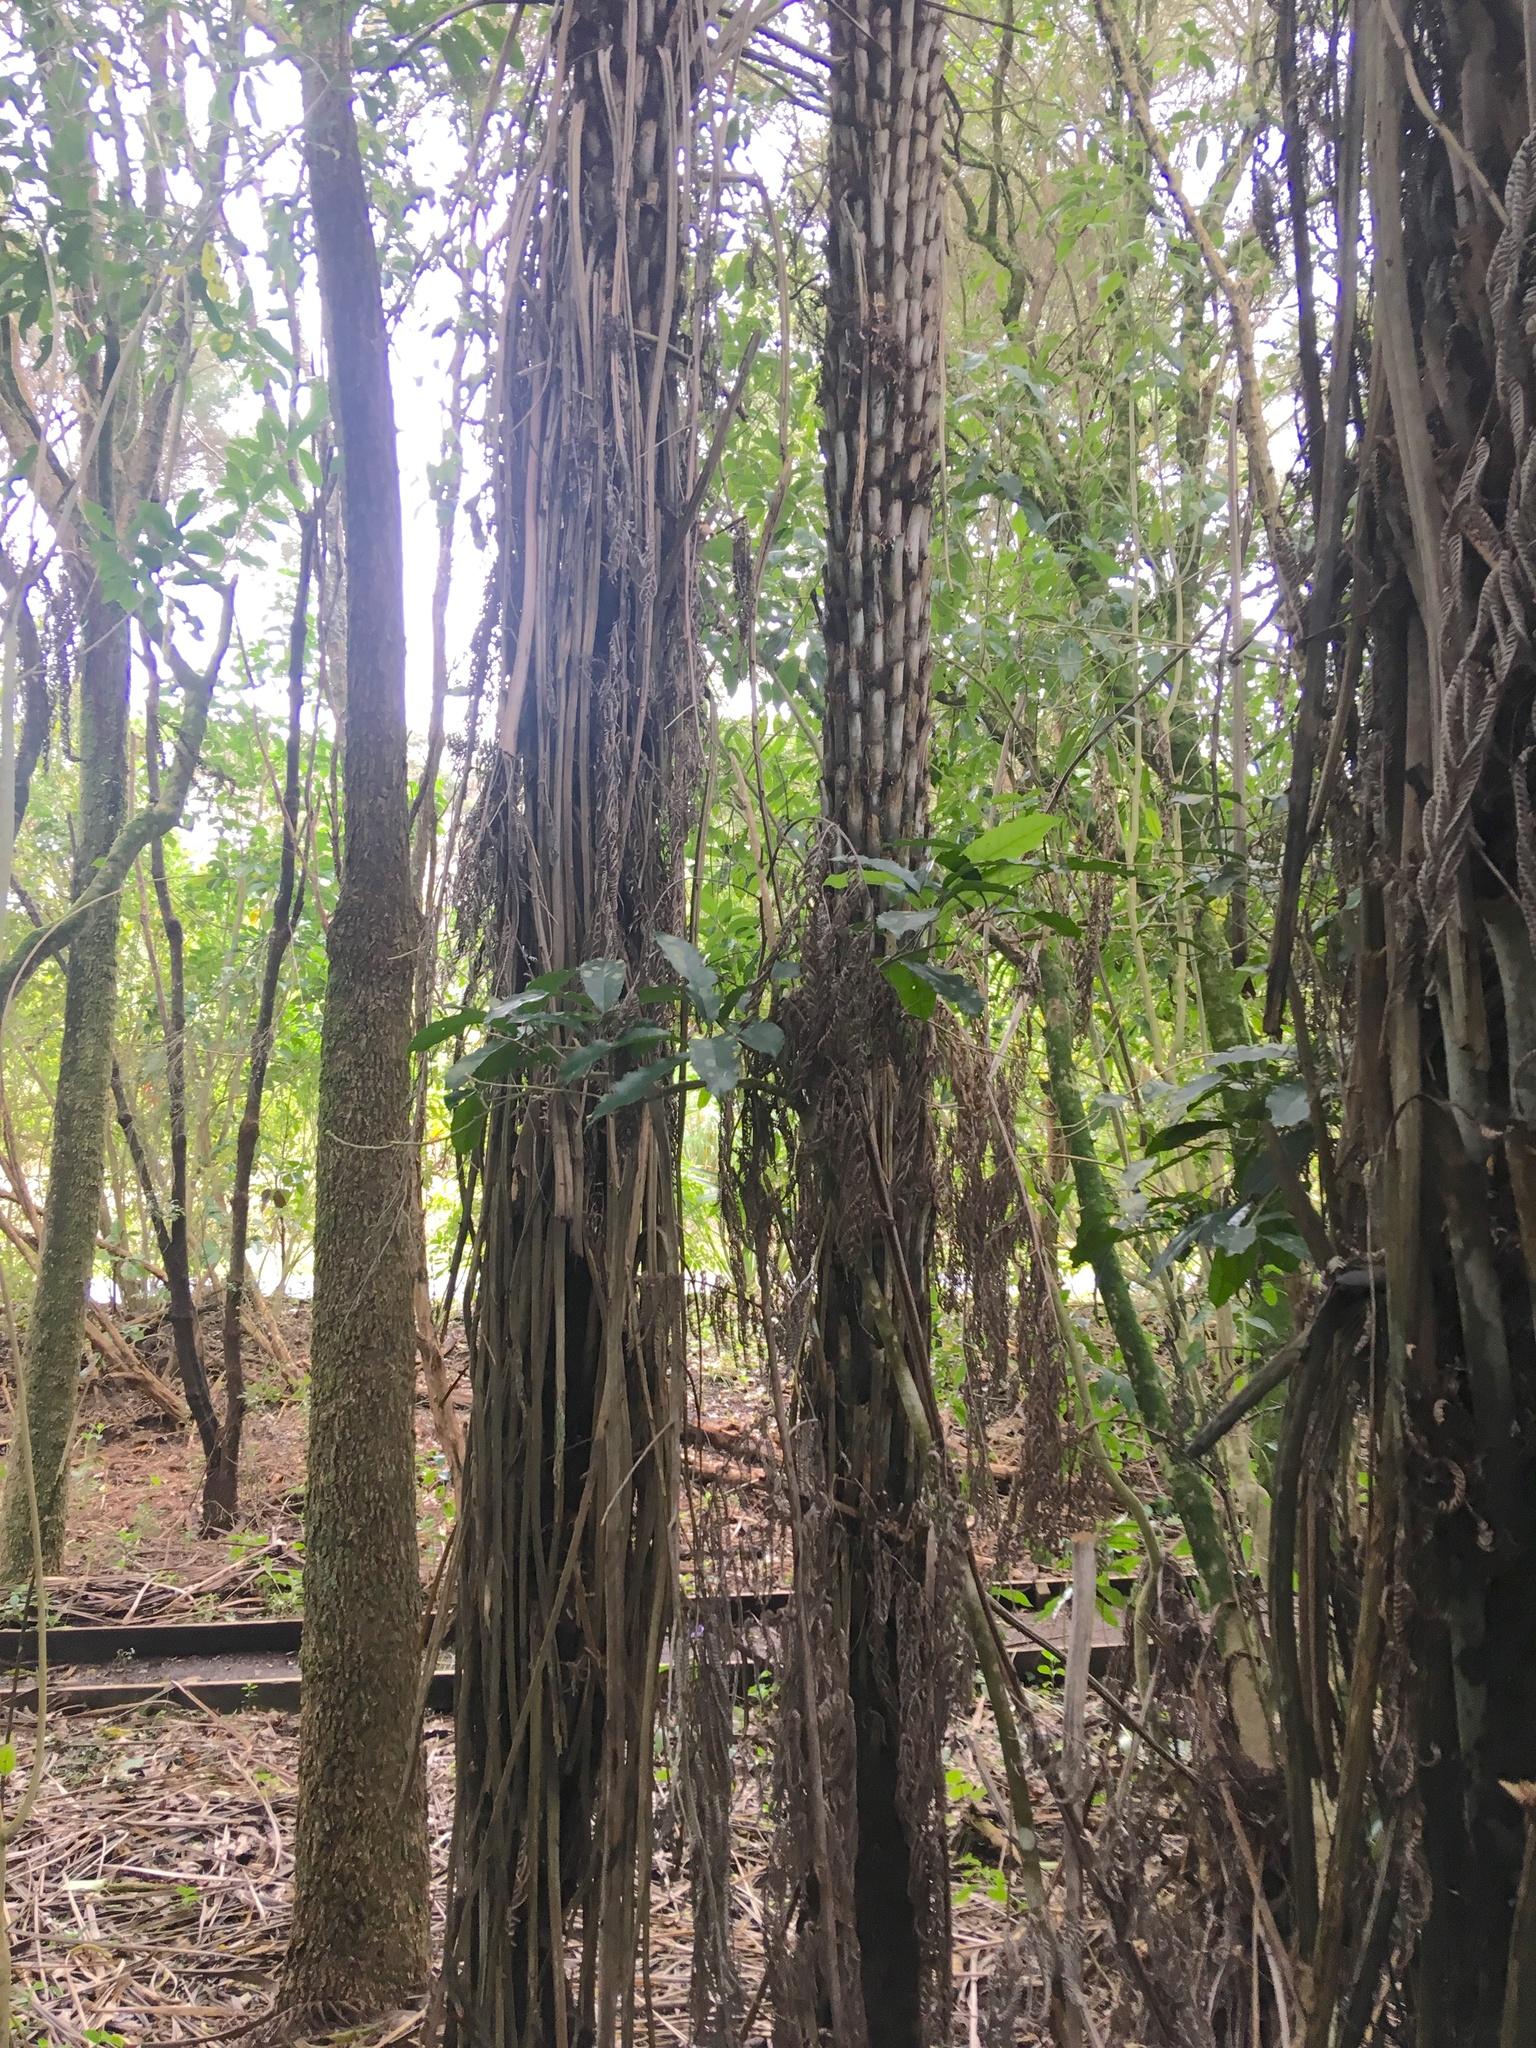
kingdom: Plantae
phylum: Tracheophyta
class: Magnoliopsida
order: Malpighiales
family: Violaceae
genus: Melicytus
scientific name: Melicytus ramiflorus
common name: Mahoe
